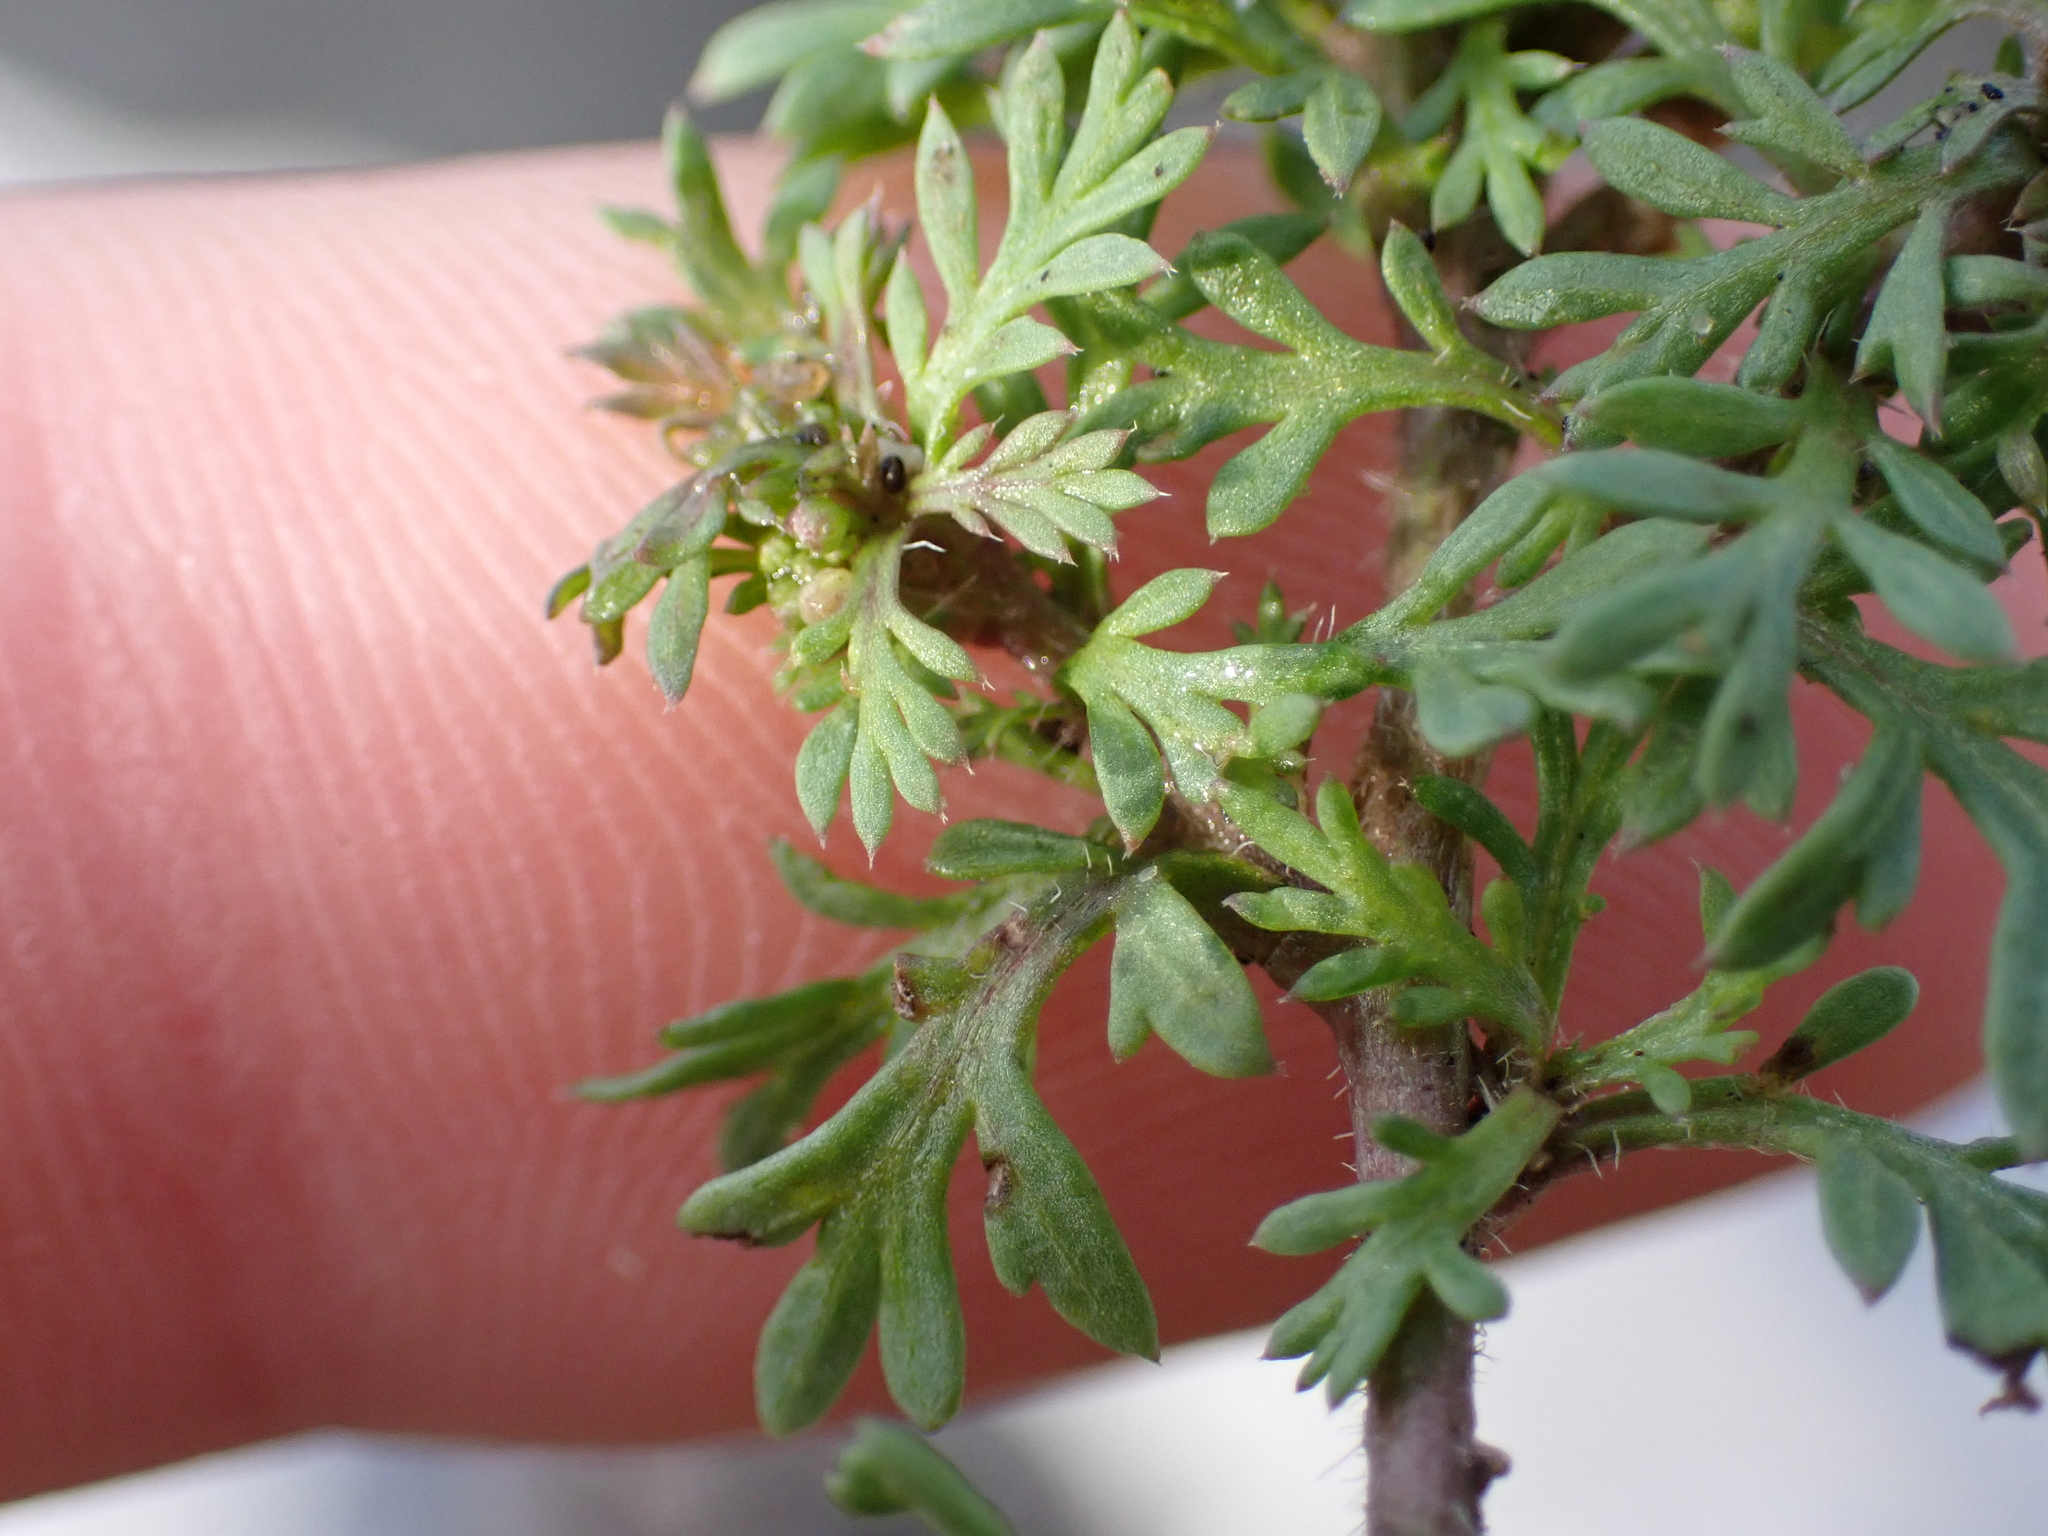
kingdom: Plantae
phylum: Tracheophyta
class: Magnoliopsida
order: Brassicales
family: Brassicaceae
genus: Lepidium
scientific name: Lepidium didymum
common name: Lesser swinecress
